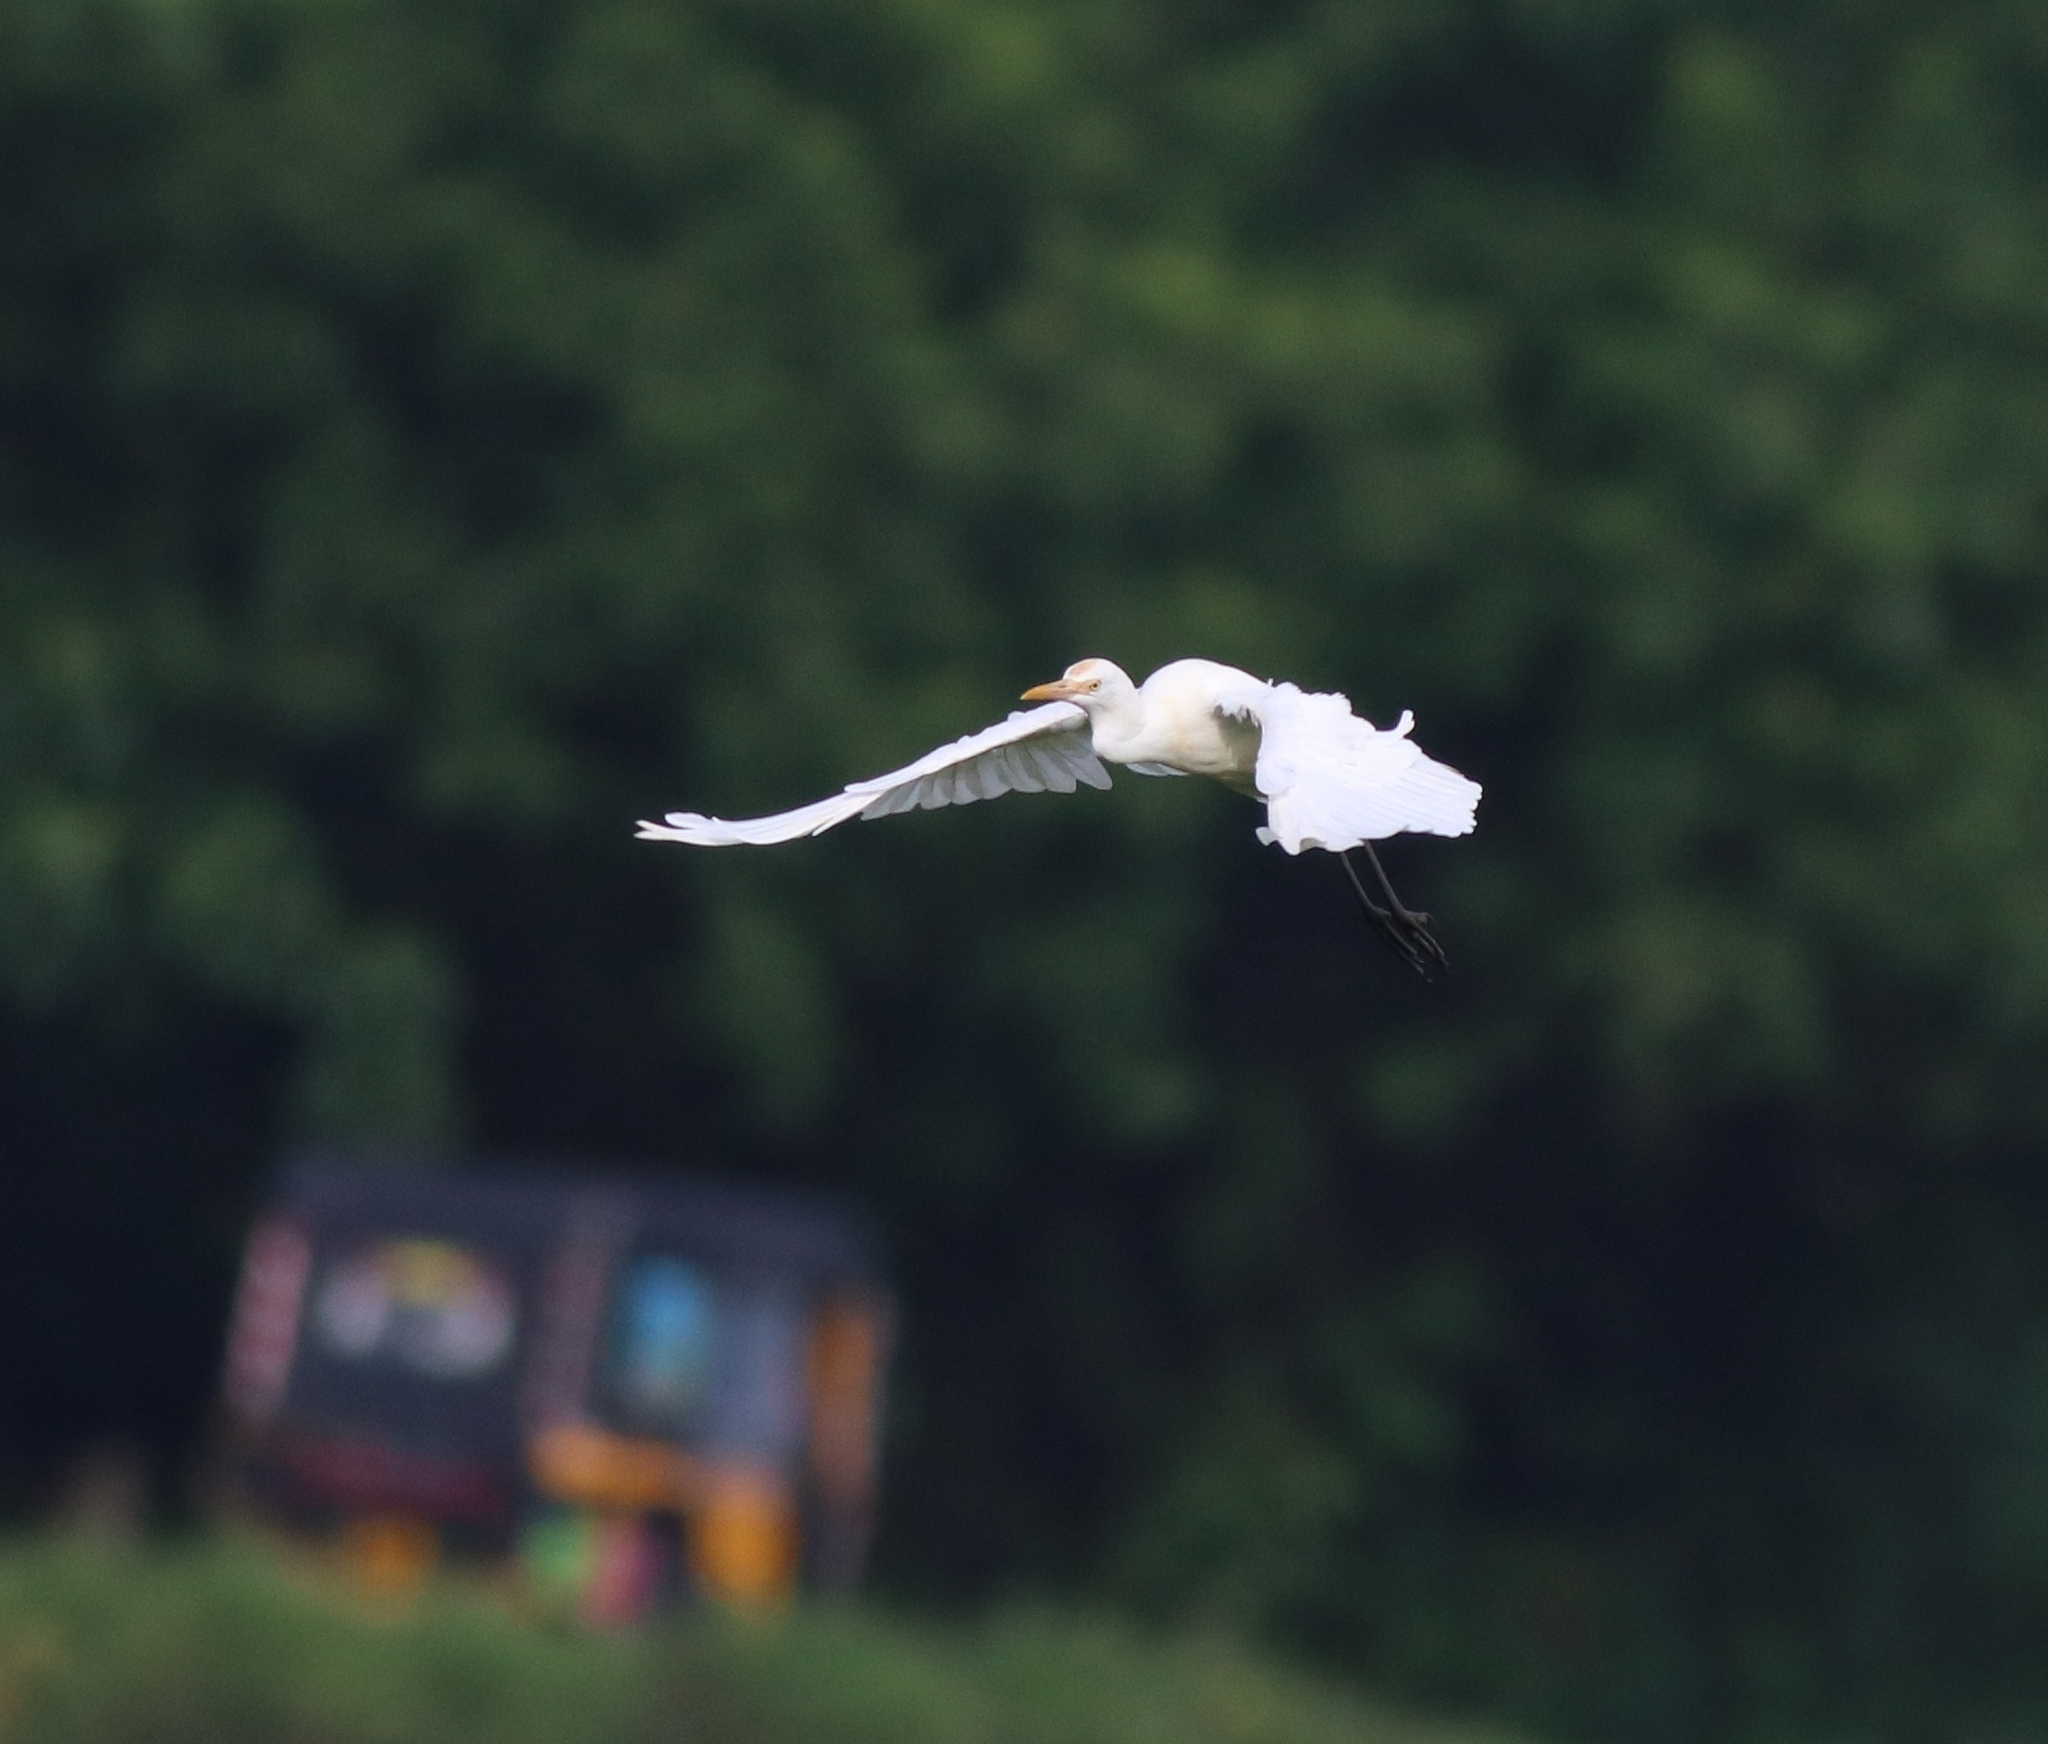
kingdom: Animalia
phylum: Chordata
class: Aves
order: Pelecaniformes
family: Ardeidae
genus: Bubulcus
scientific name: Bubulcus coromandus
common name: Eastern cattle egret
